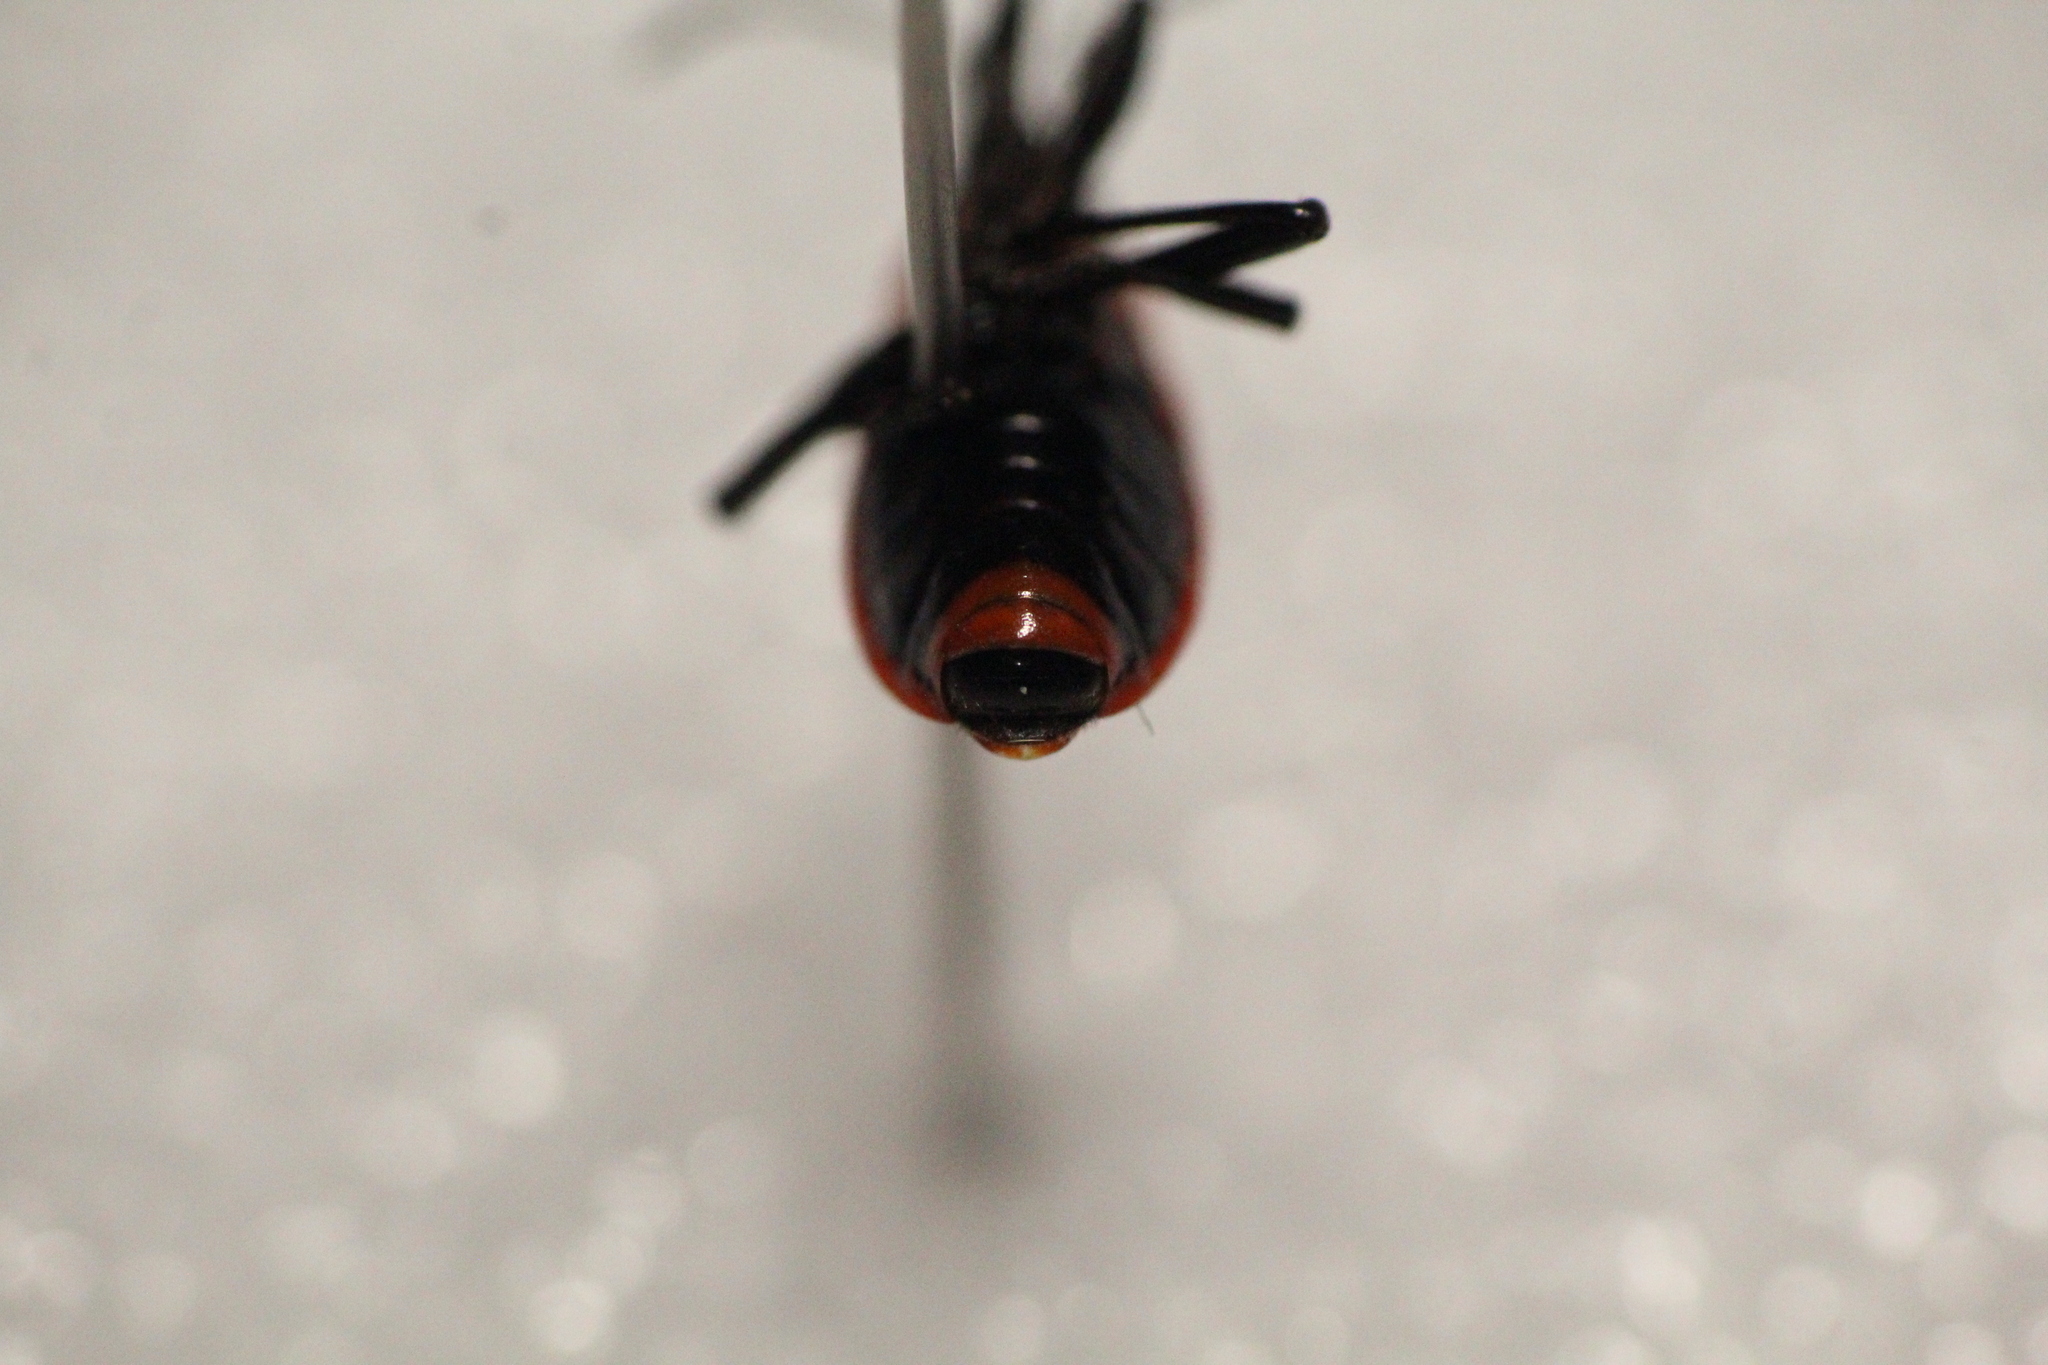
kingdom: Animalia
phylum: Arthropoda
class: Insecta
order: Hemiptera
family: Pyrrhocoridae
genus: Pyrrhocoris
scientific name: Pyrrhocoris apterus
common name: Firebug
